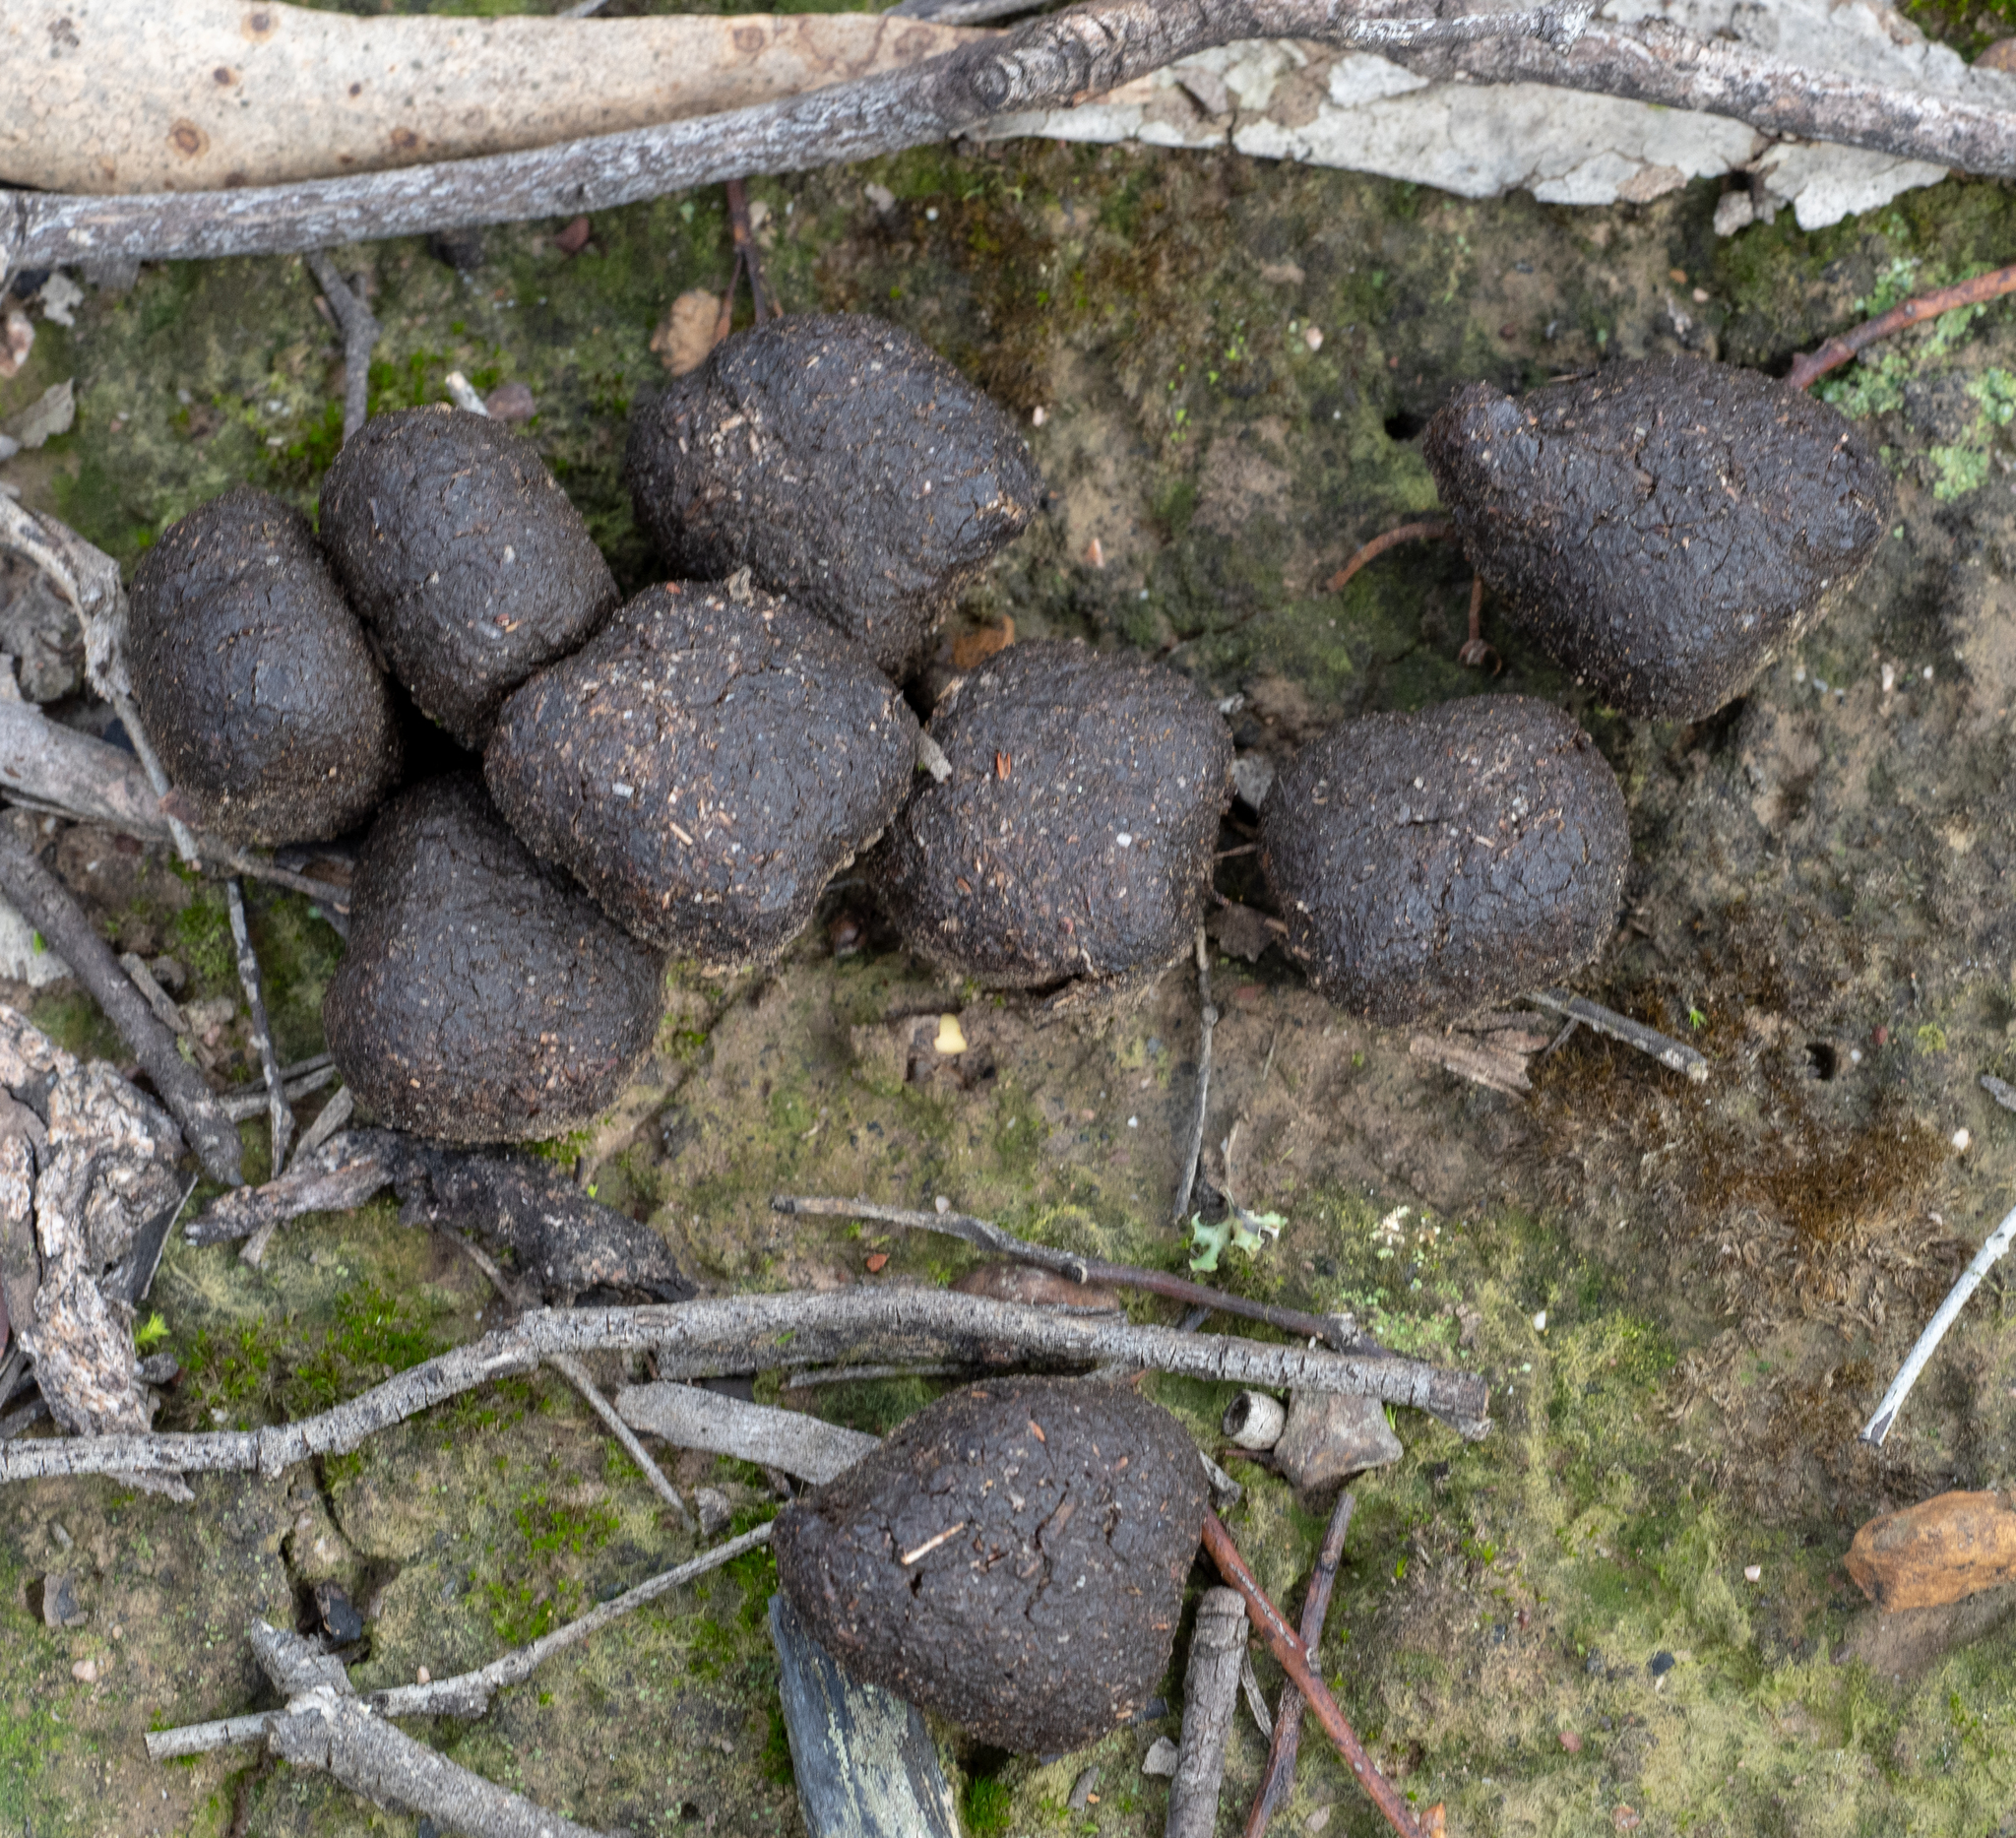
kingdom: Animalia
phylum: Chordata
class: Mammalia
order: Diprotodontia
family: Vombatidae
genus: Vombatus
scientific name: Vombatus ursinus
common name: Common wombat
